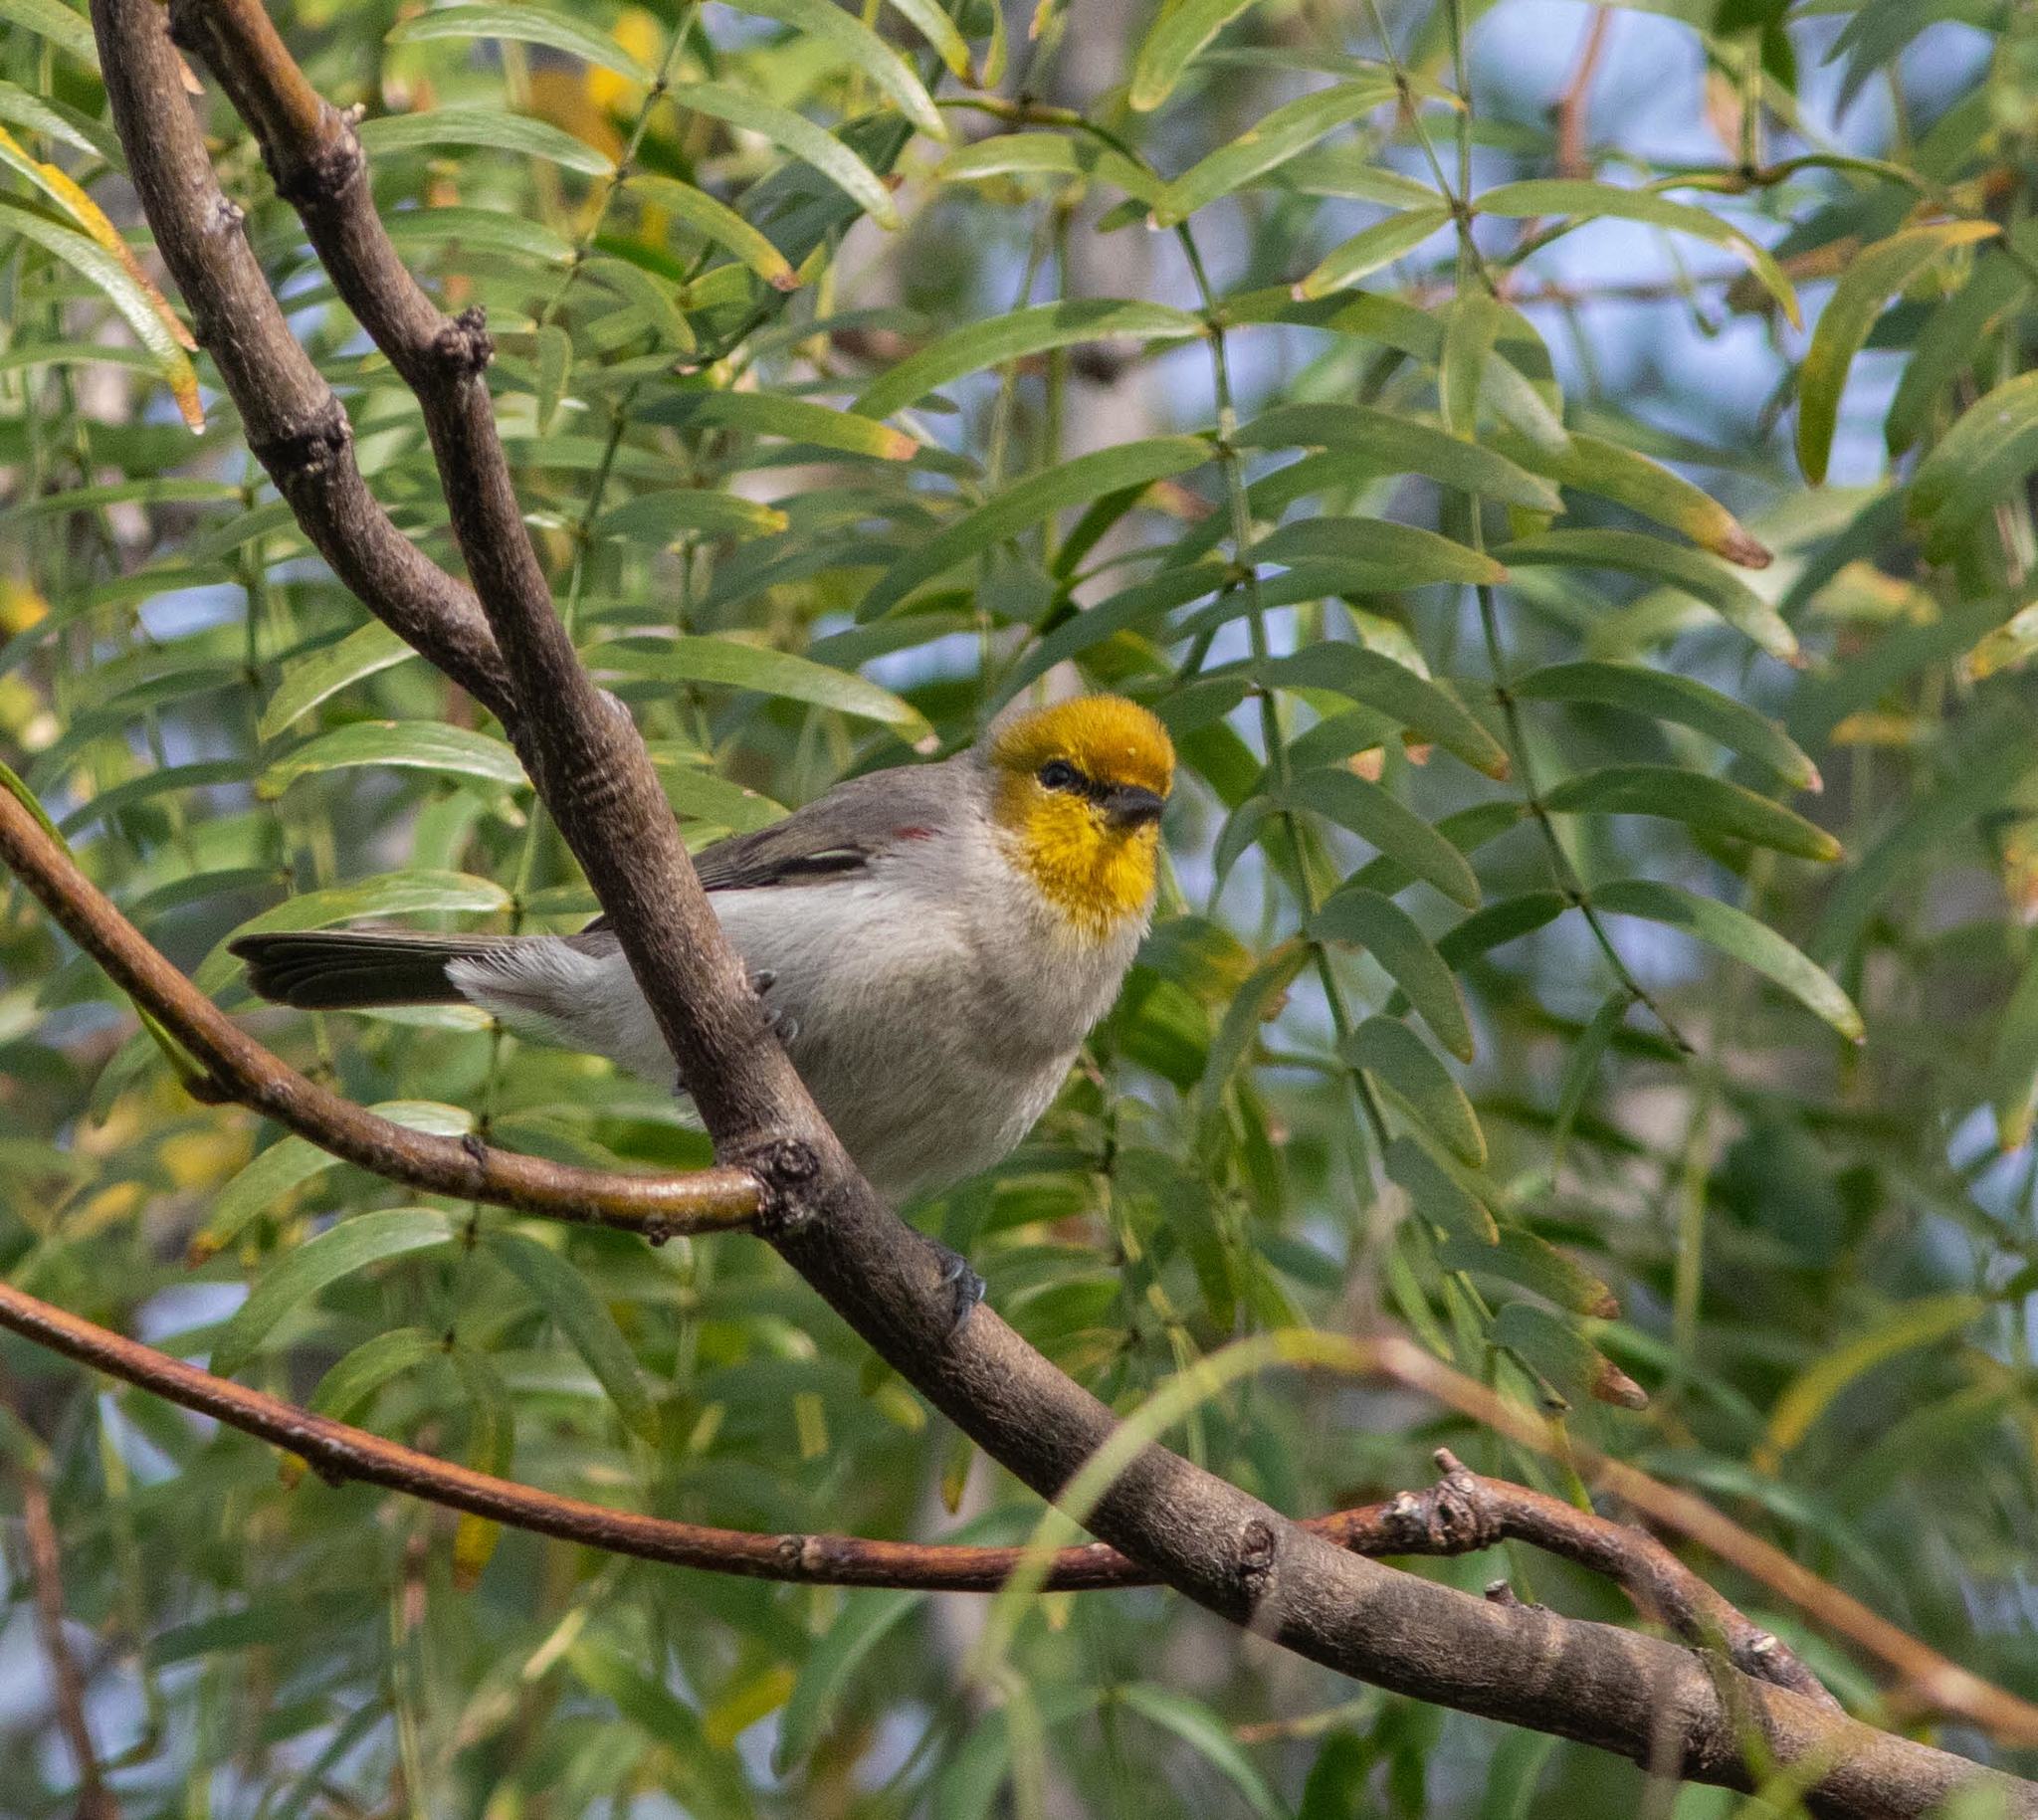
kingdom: Animalia
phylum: Chordata
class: Aves
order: Passeriformes
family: Remizidae
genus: Auriparus
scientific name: Auriparus flaviceps
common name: Verdin
